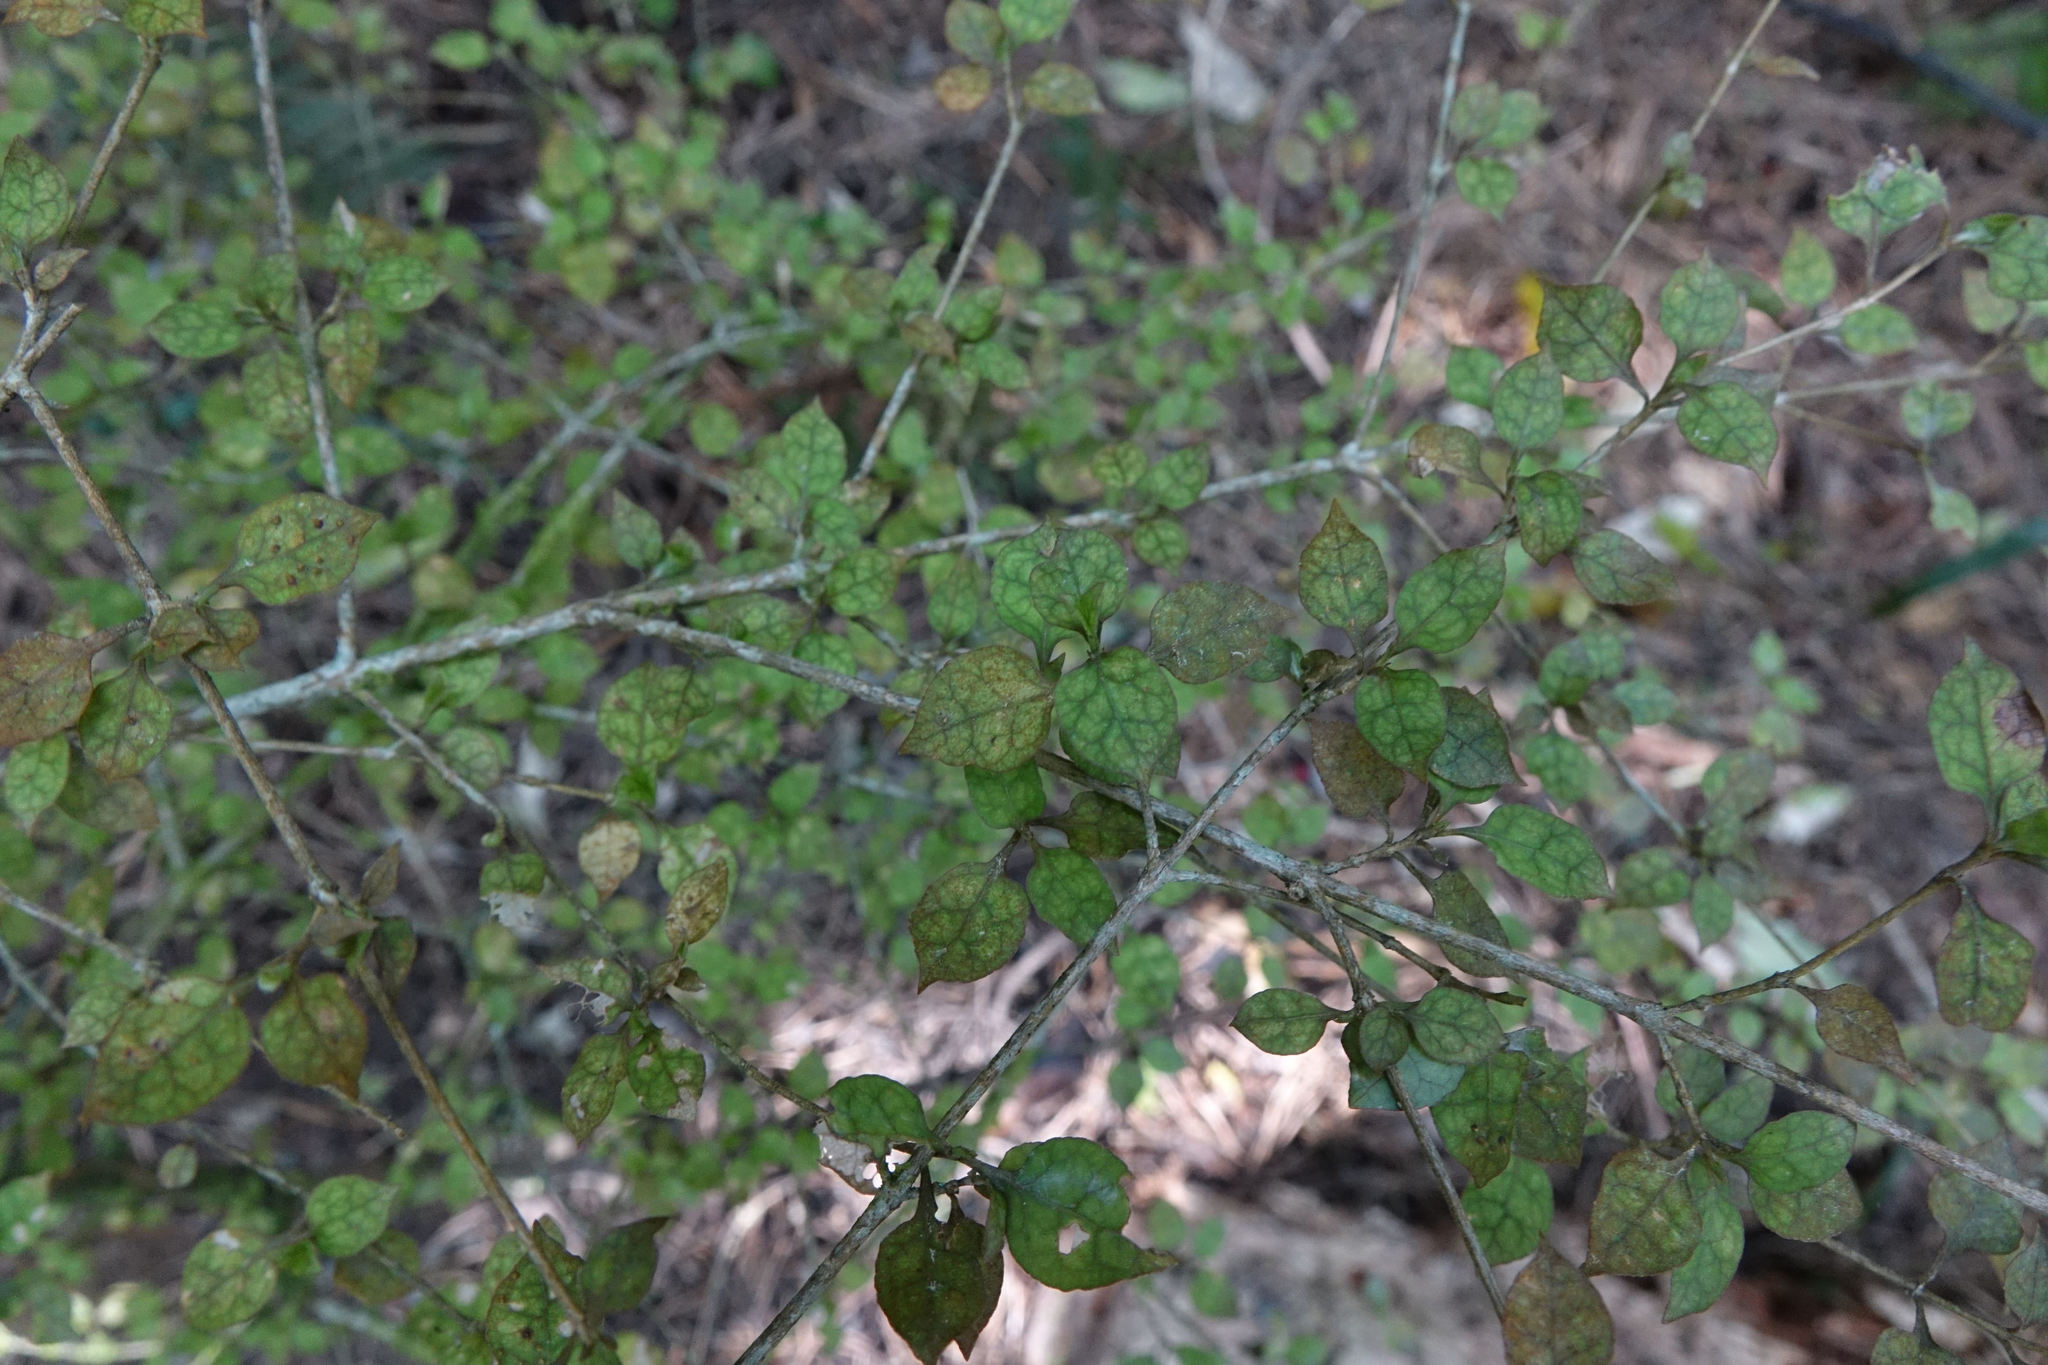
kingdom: Plantae
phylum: Tracheophyta
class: Magnoliopsida
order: Gentianales
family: Rubiaceae
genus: Coprosma
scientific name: Coprosma areolata
